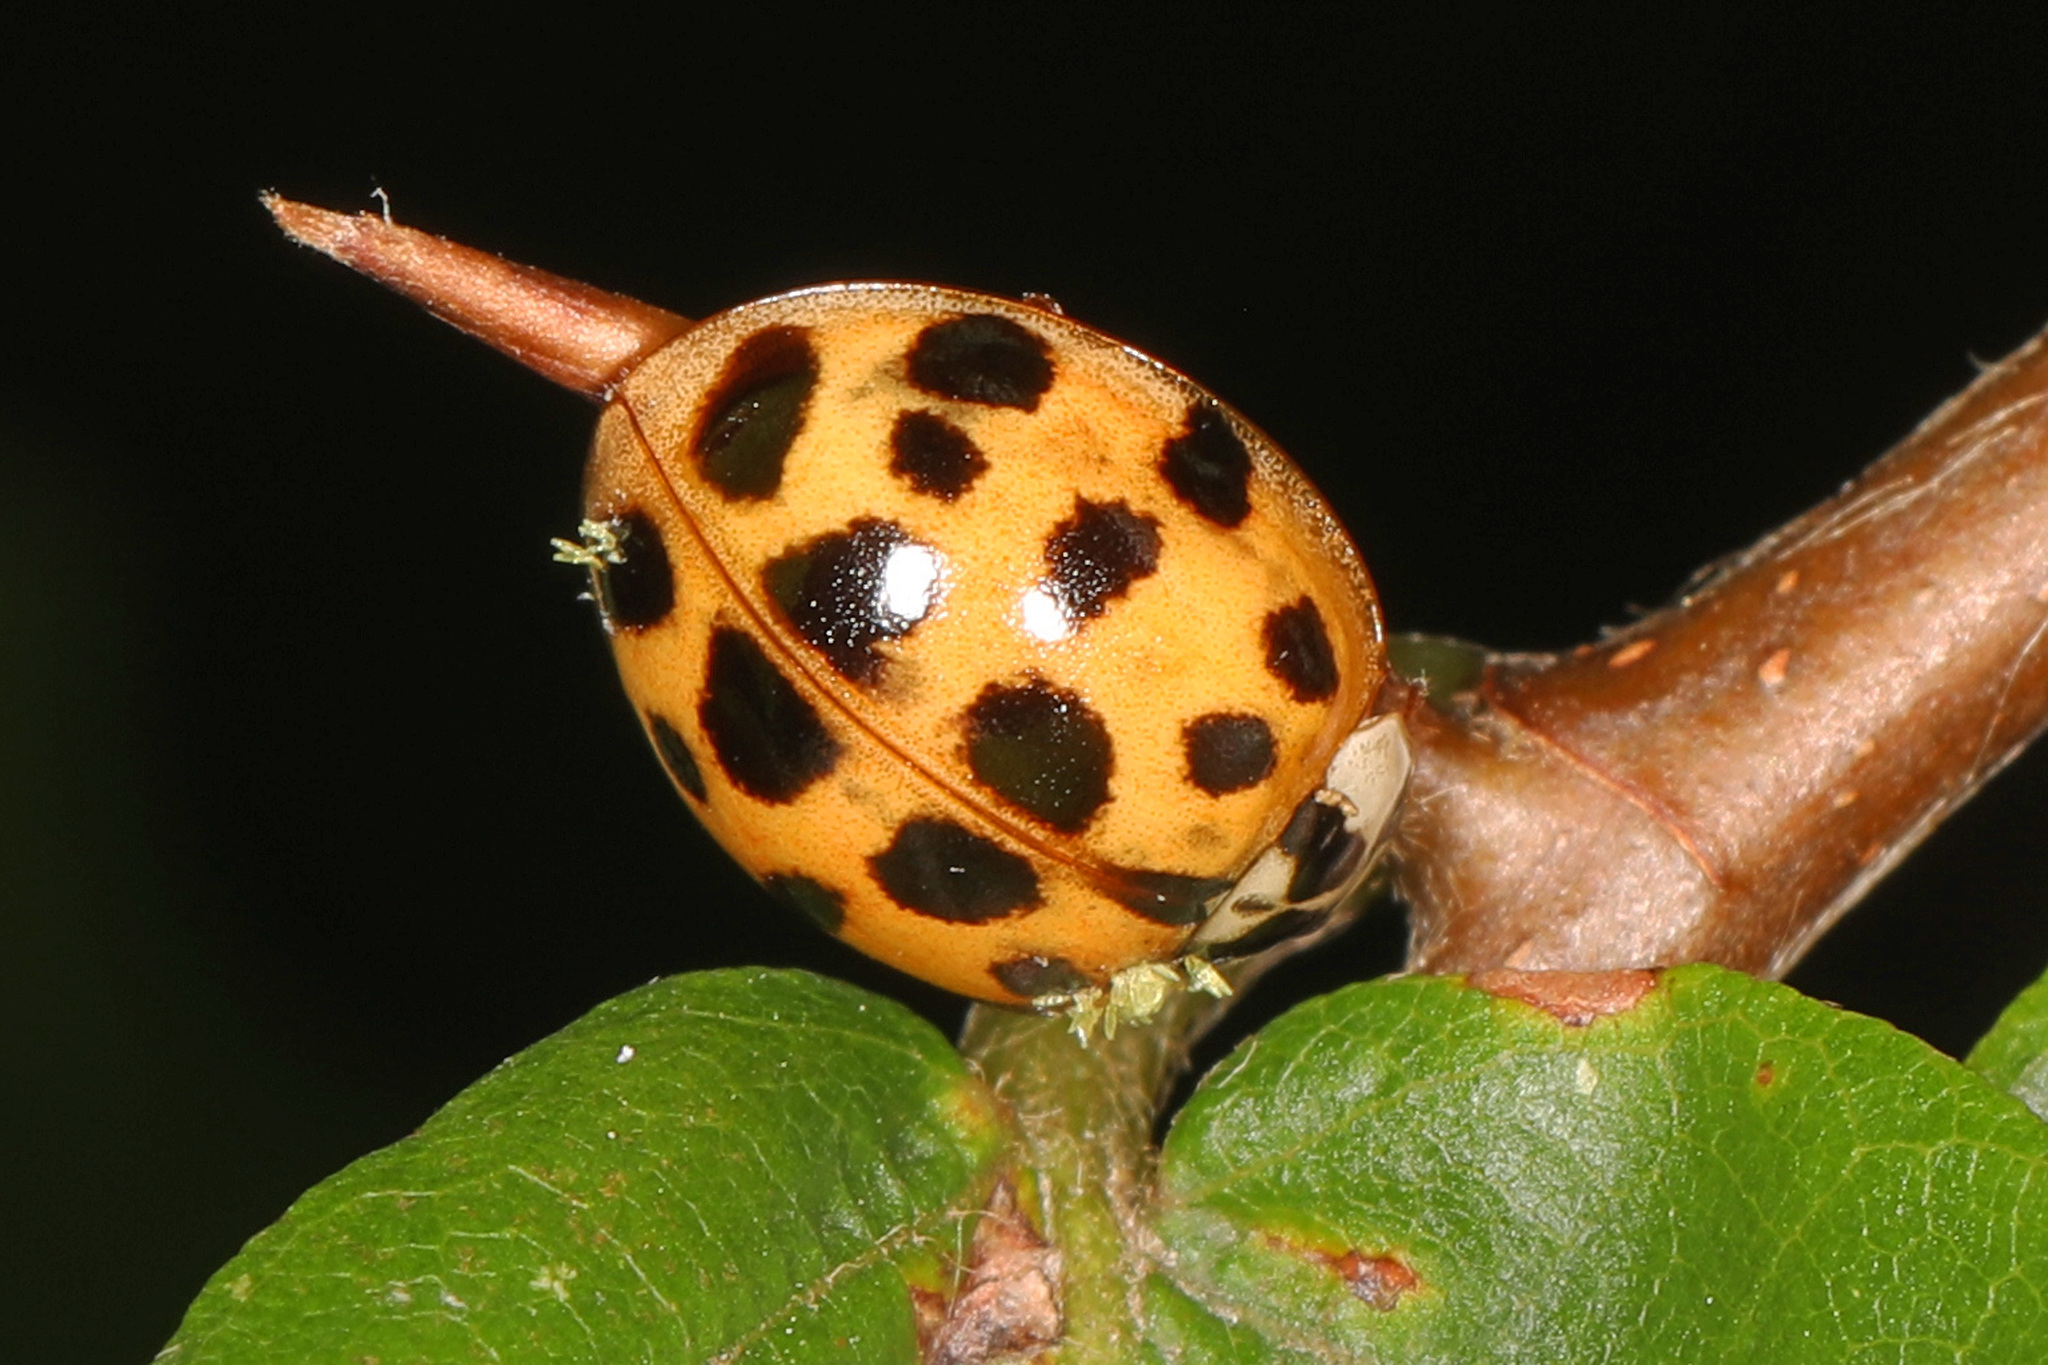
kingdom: Animalia
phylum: Arthropoda
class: Insecta
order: Coleoptera
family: Coccinellidae
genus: Harmonia
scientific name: Harmonia axyridis
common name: Harlequin ladybird
